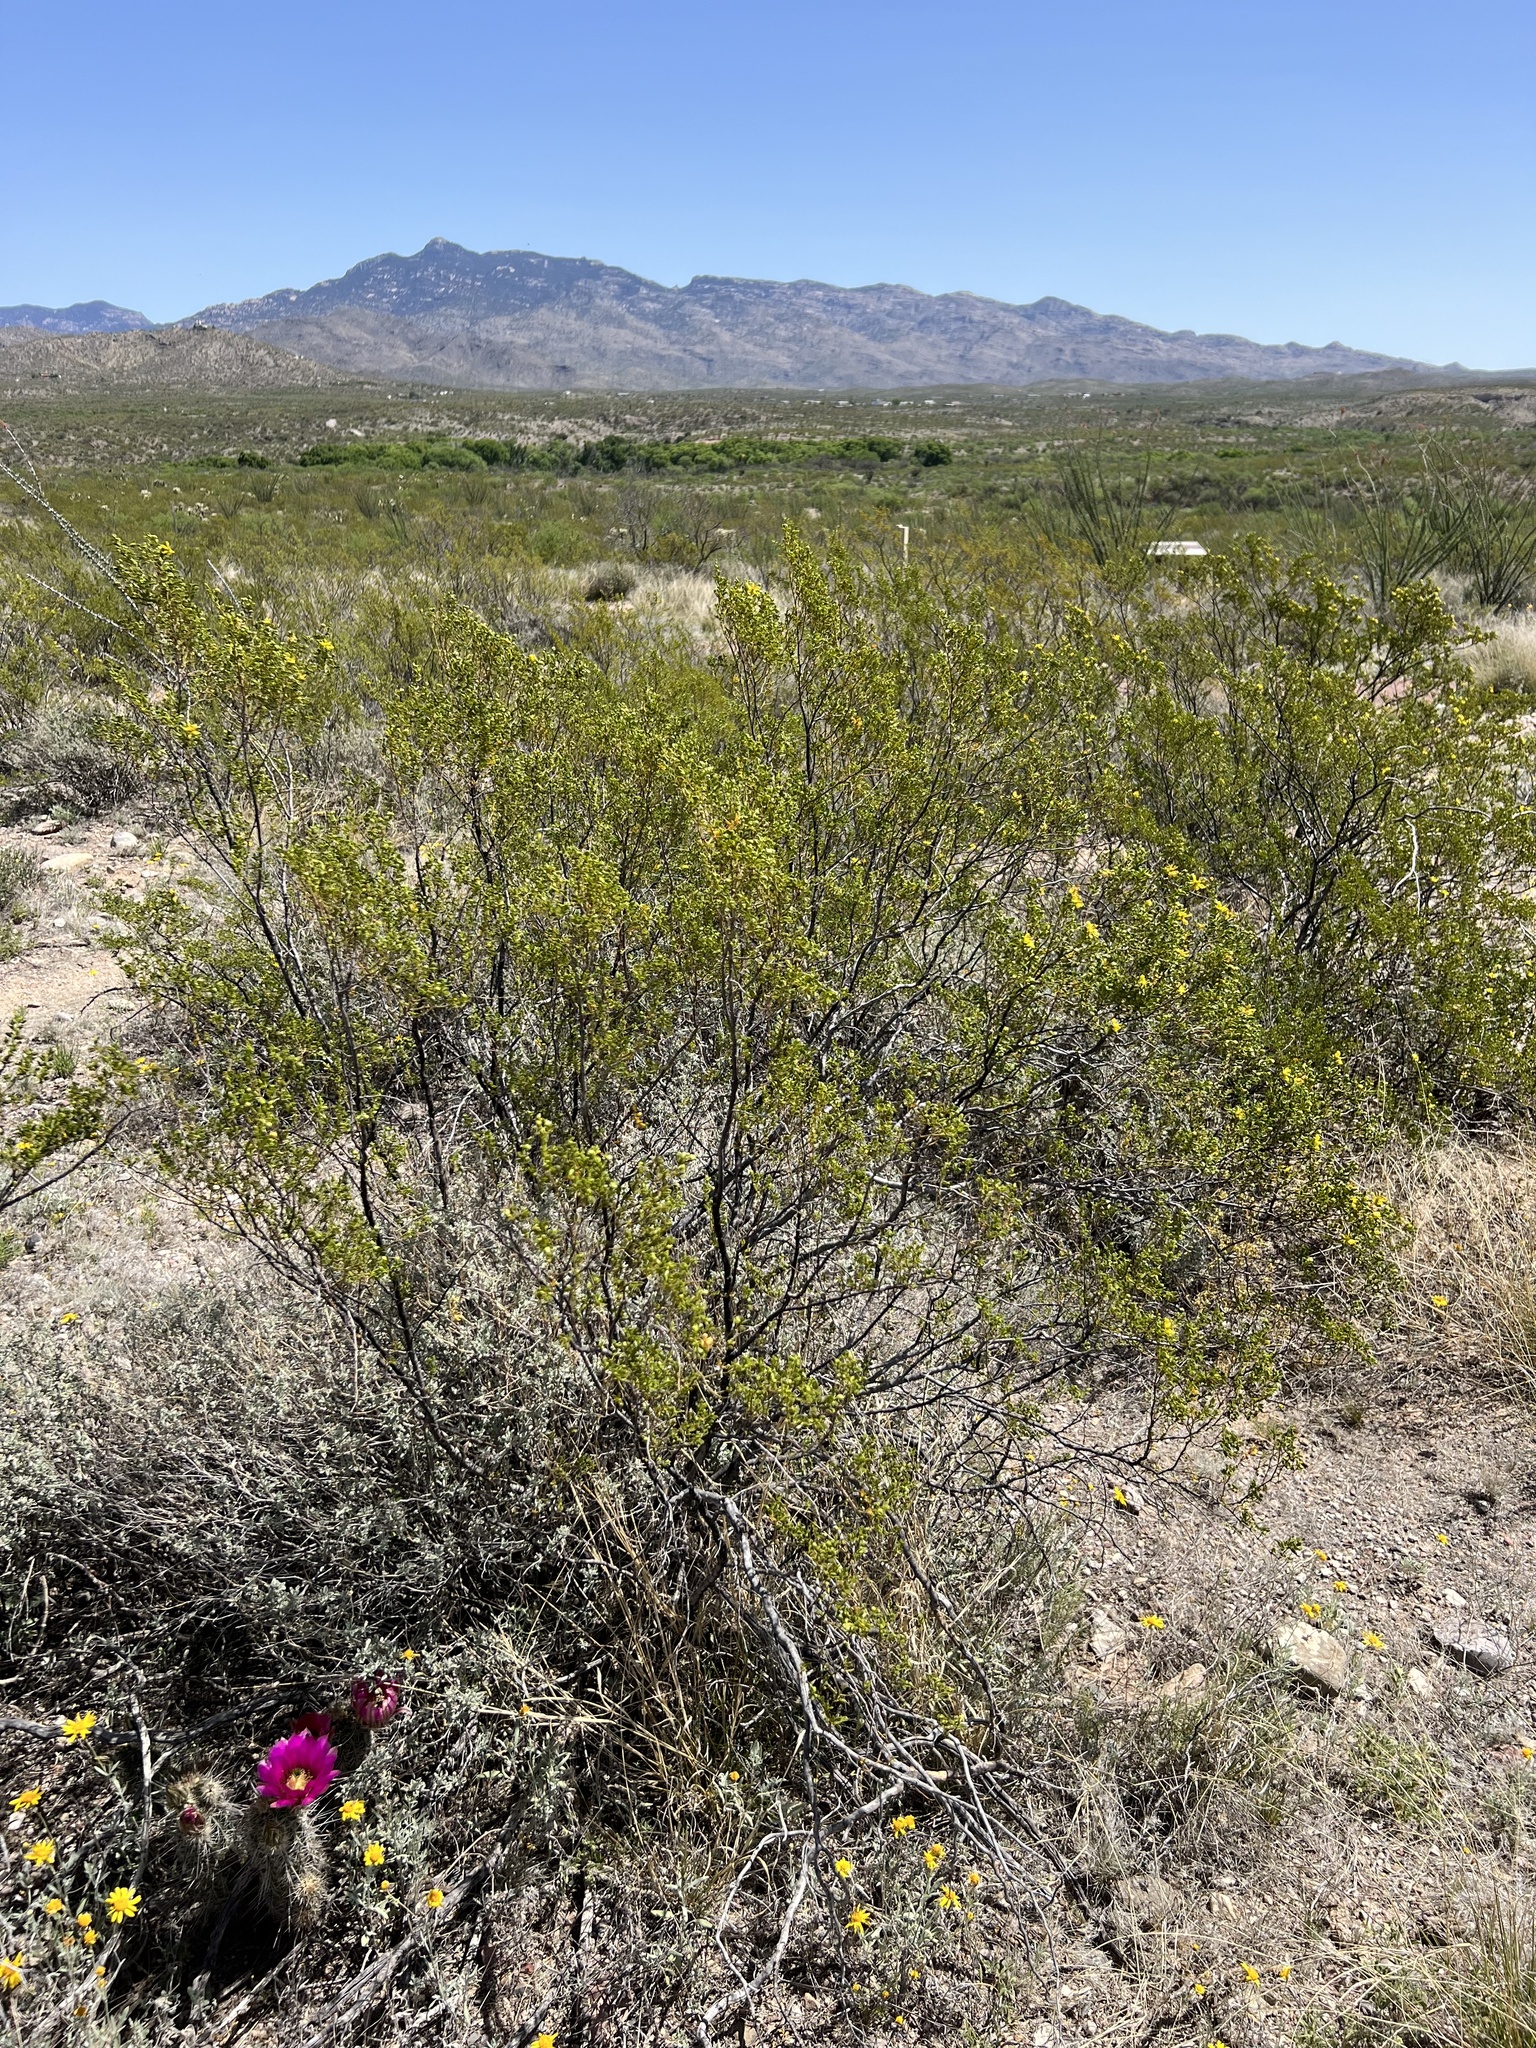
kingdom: Plantae
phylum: Tracheophyta
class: Magnoliopsida
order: Zygophyllales
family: Zygophyllaceae
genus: Larrea
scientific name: Larrea tridentata
